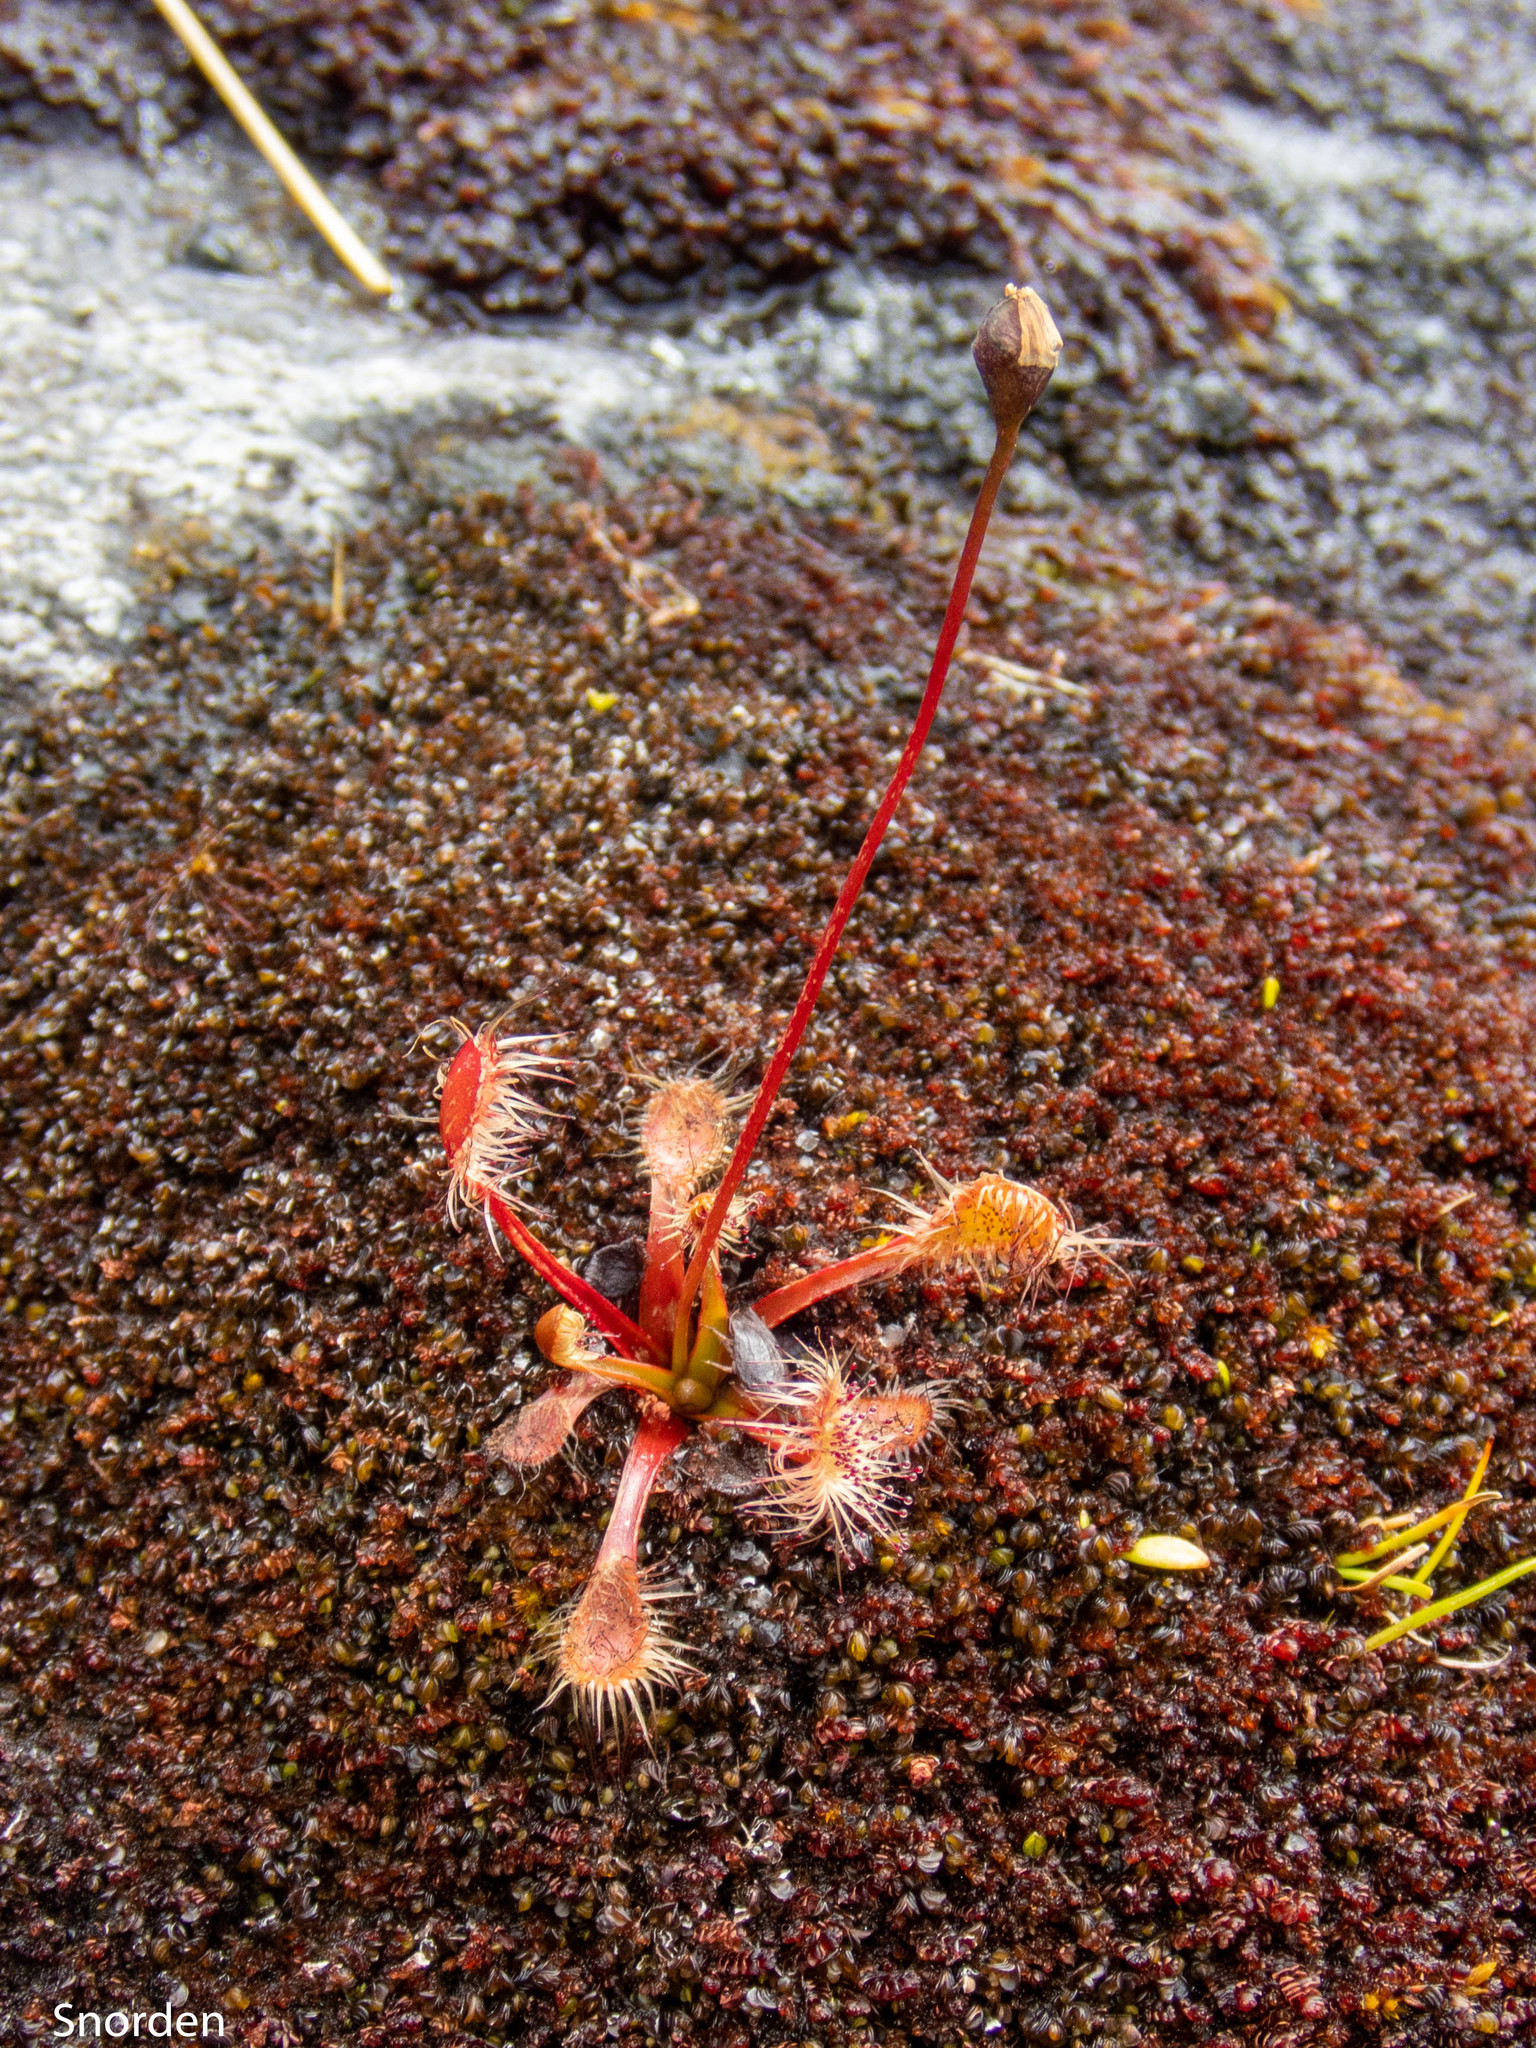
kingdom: Plantae
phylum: Tracheophyta
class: Magnoliopsida
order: Caryophyllales
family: Droseraceae
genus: Drosera
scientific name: Drosera stenopetala
